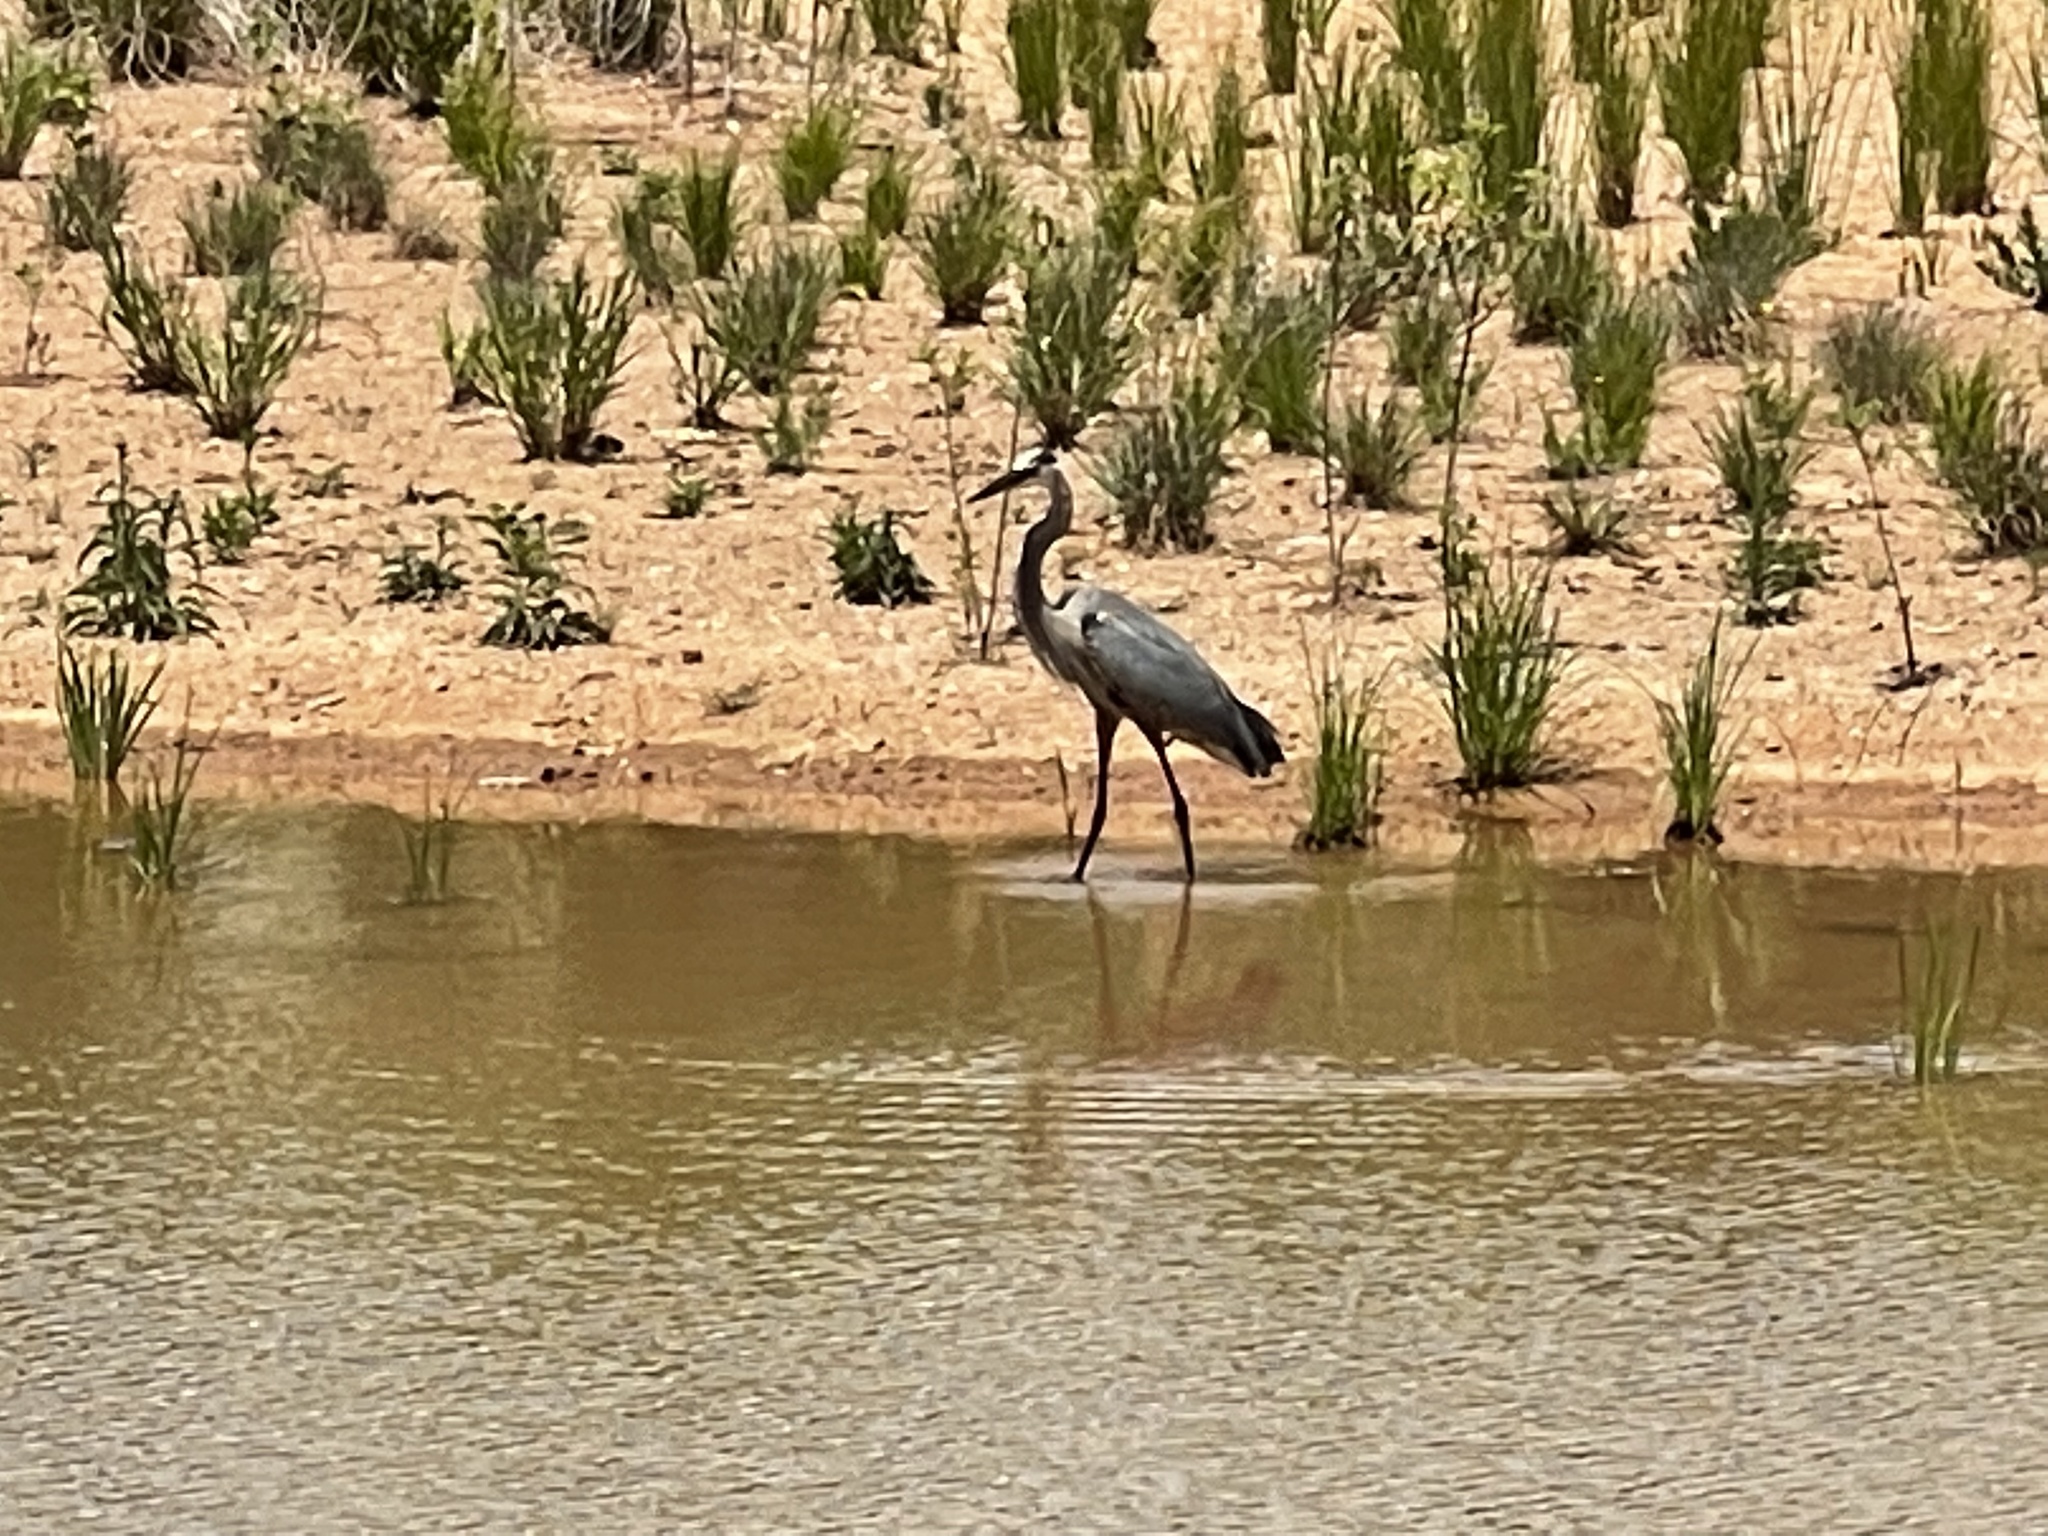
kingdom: Animalia
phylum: Chordata
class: Aves
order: Pelecaniformes
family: Ardeidae
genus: Ardea
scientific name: Ardea herodias
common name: Great blue heron
